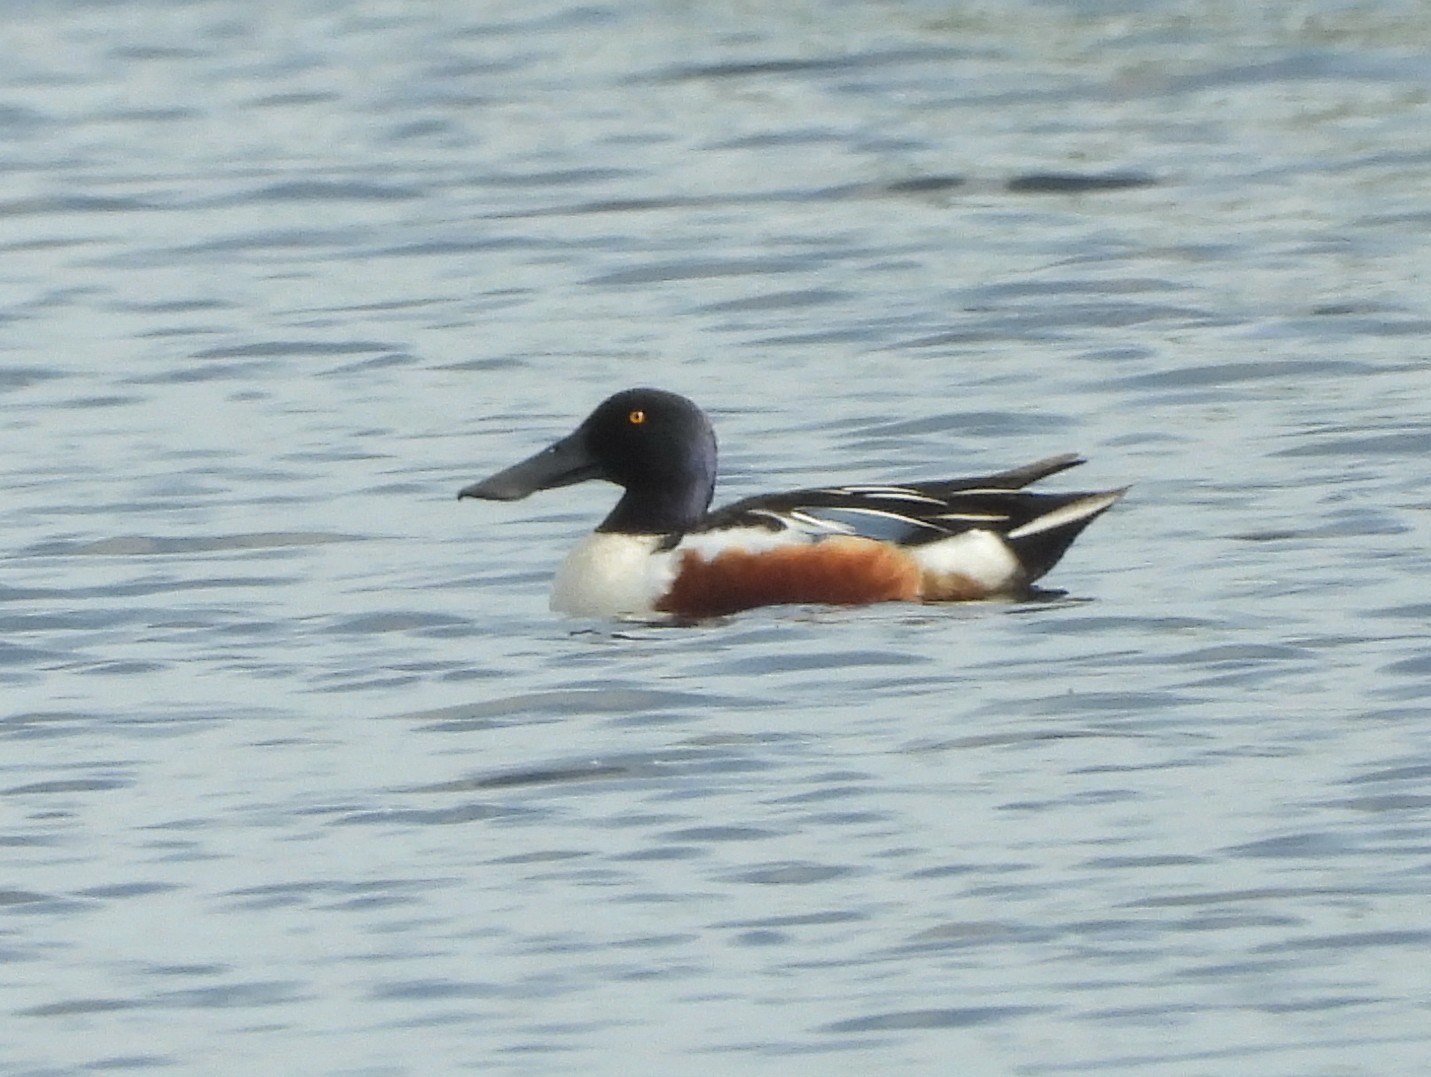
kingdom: Animalia
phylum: Chordata
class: Aves
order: Anseriformes
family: Anatidae
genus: Spatula
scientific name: Spatula clypeata
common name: Northern shoveler
